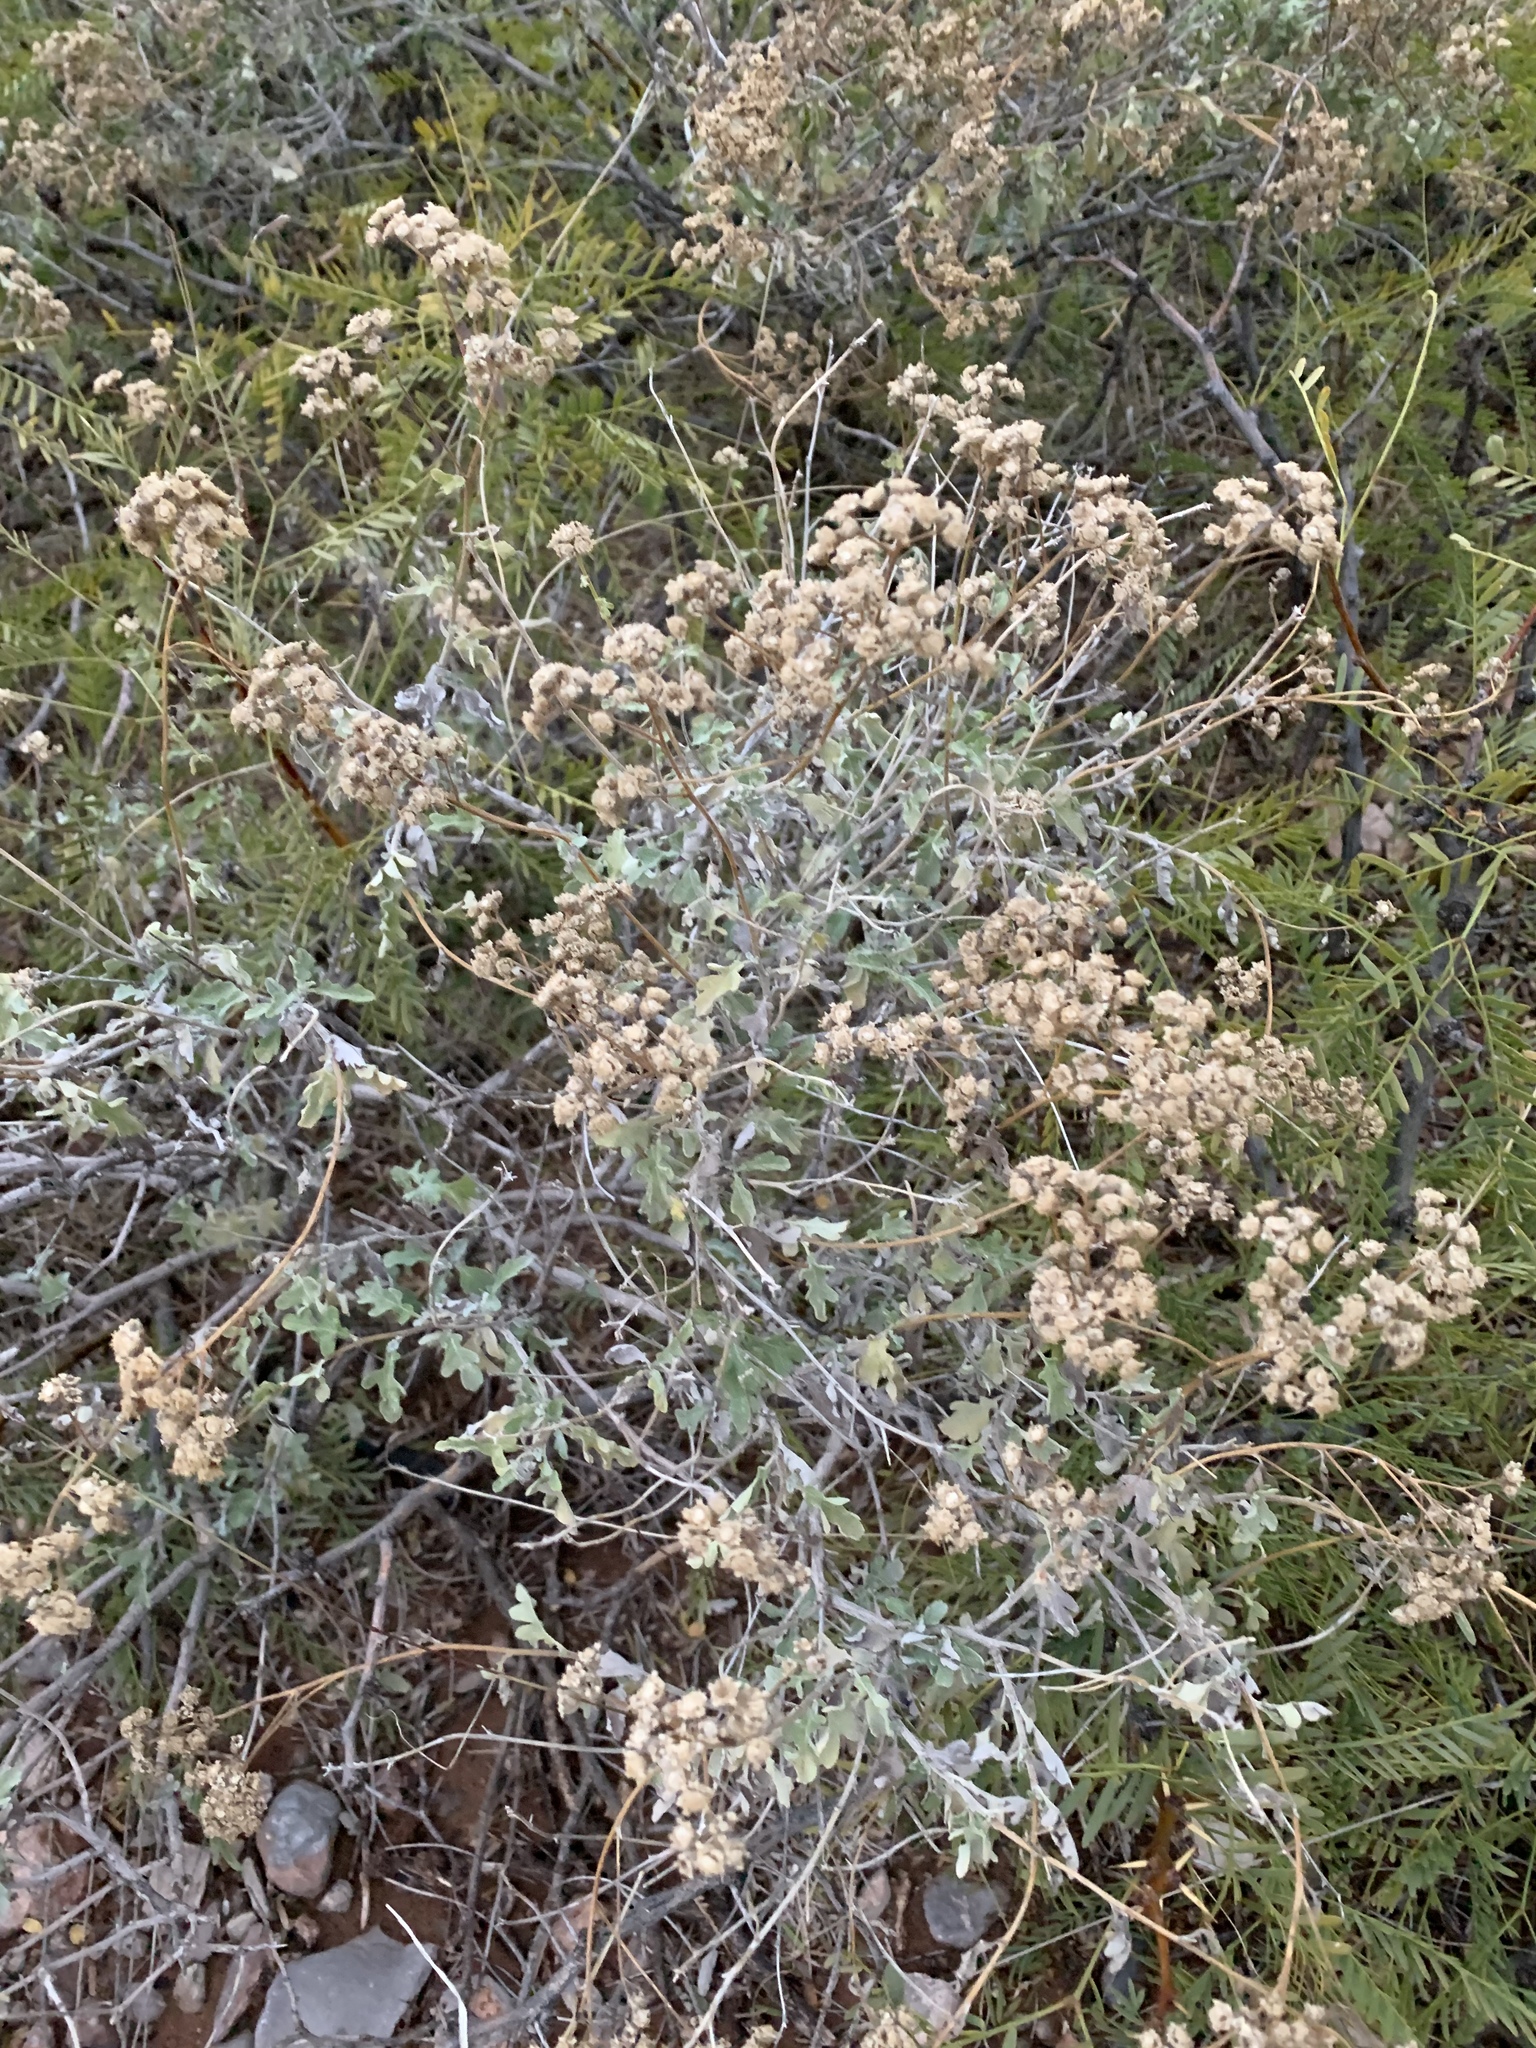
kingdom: Plantae
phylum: Tracheophyta
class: Magnoliopsida
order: Asterales
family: Asteraceae
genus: Parthenium
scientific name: Parthenium incanum
